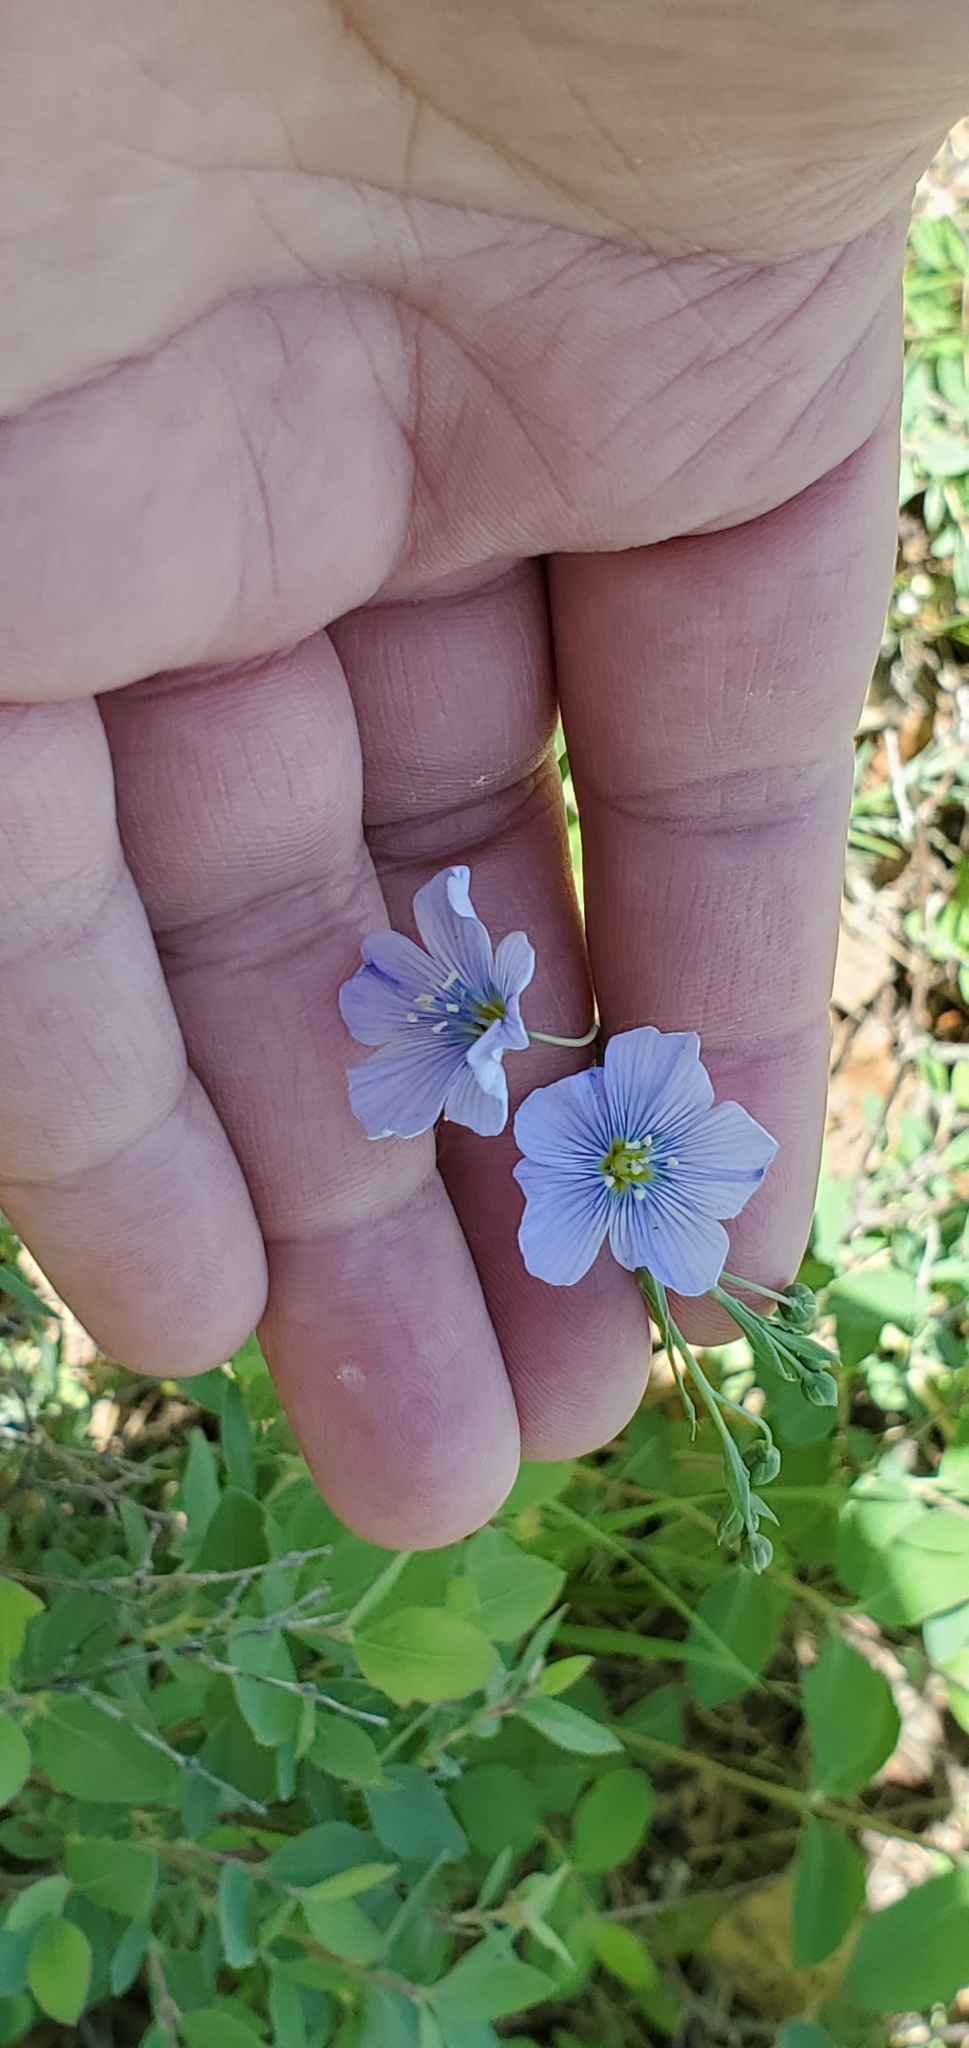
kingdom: Plantae
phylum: Tracheophyta
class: Magnoliopsida
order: Malpighiales
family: Linaceae
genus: Linum
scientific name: Linum lewisii
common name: Prairie flax
